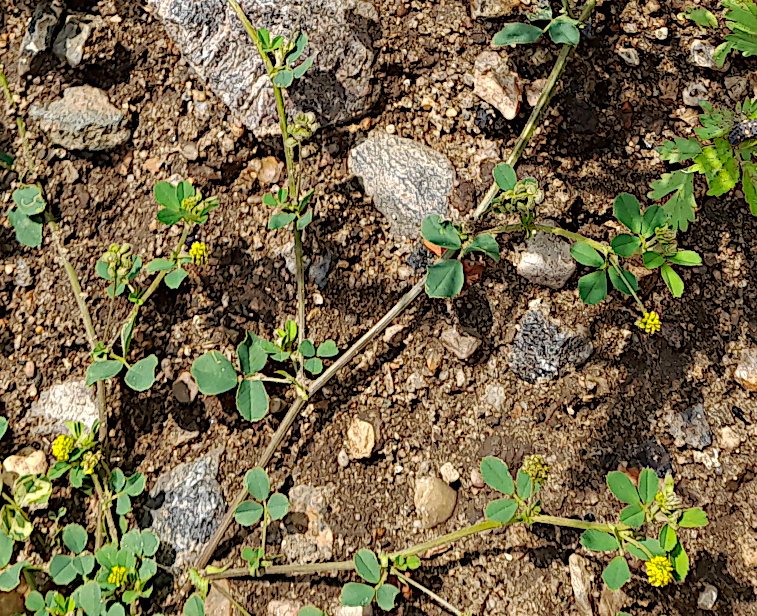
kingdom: Plantae
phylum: Tracheophyta
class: Magnoliopsida
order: Fabales
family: Fabaceae
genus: Medicago
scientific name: Medicago lupulina
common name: Black medick
